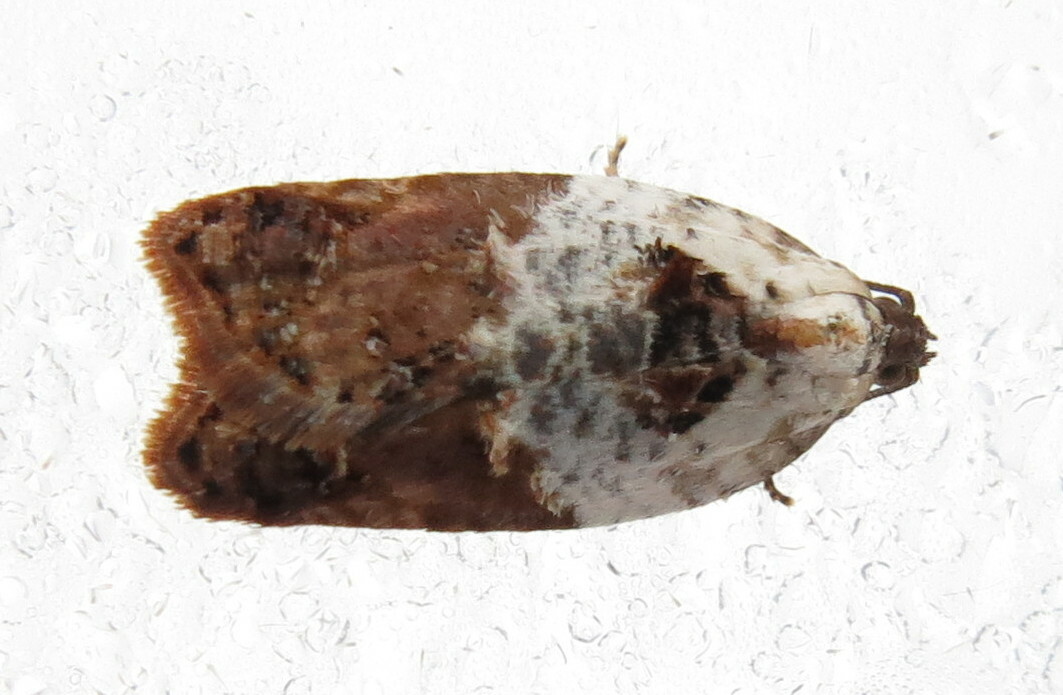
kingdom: Animalia
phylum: Arthropoda
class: Insecta
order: Lepidoptera
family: Tortricidae
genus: Acleris
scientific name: Acleris variegana
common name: Garden rose tortrix
